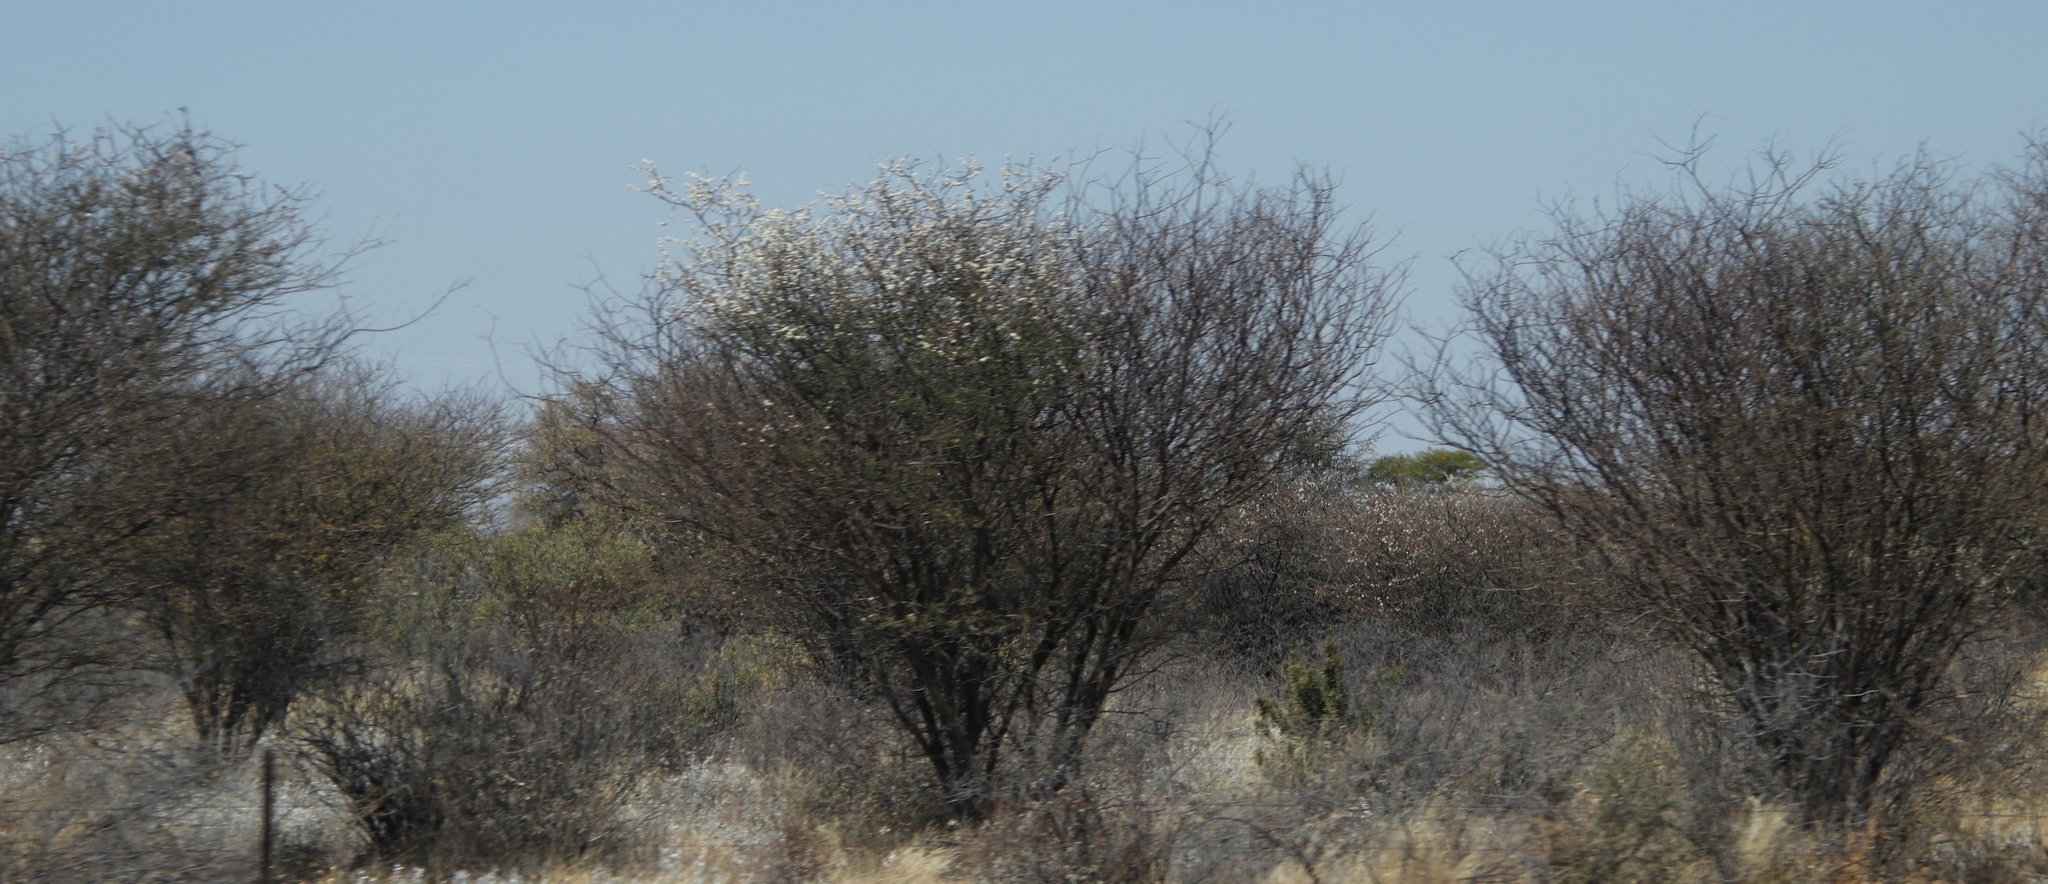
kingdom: Plantae
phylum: Tracheophyta
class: Magnoliopsida
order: Fabales
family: Fabaceae
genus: Senegalia
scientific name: Senegalia mellifera
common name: Hookthorn
